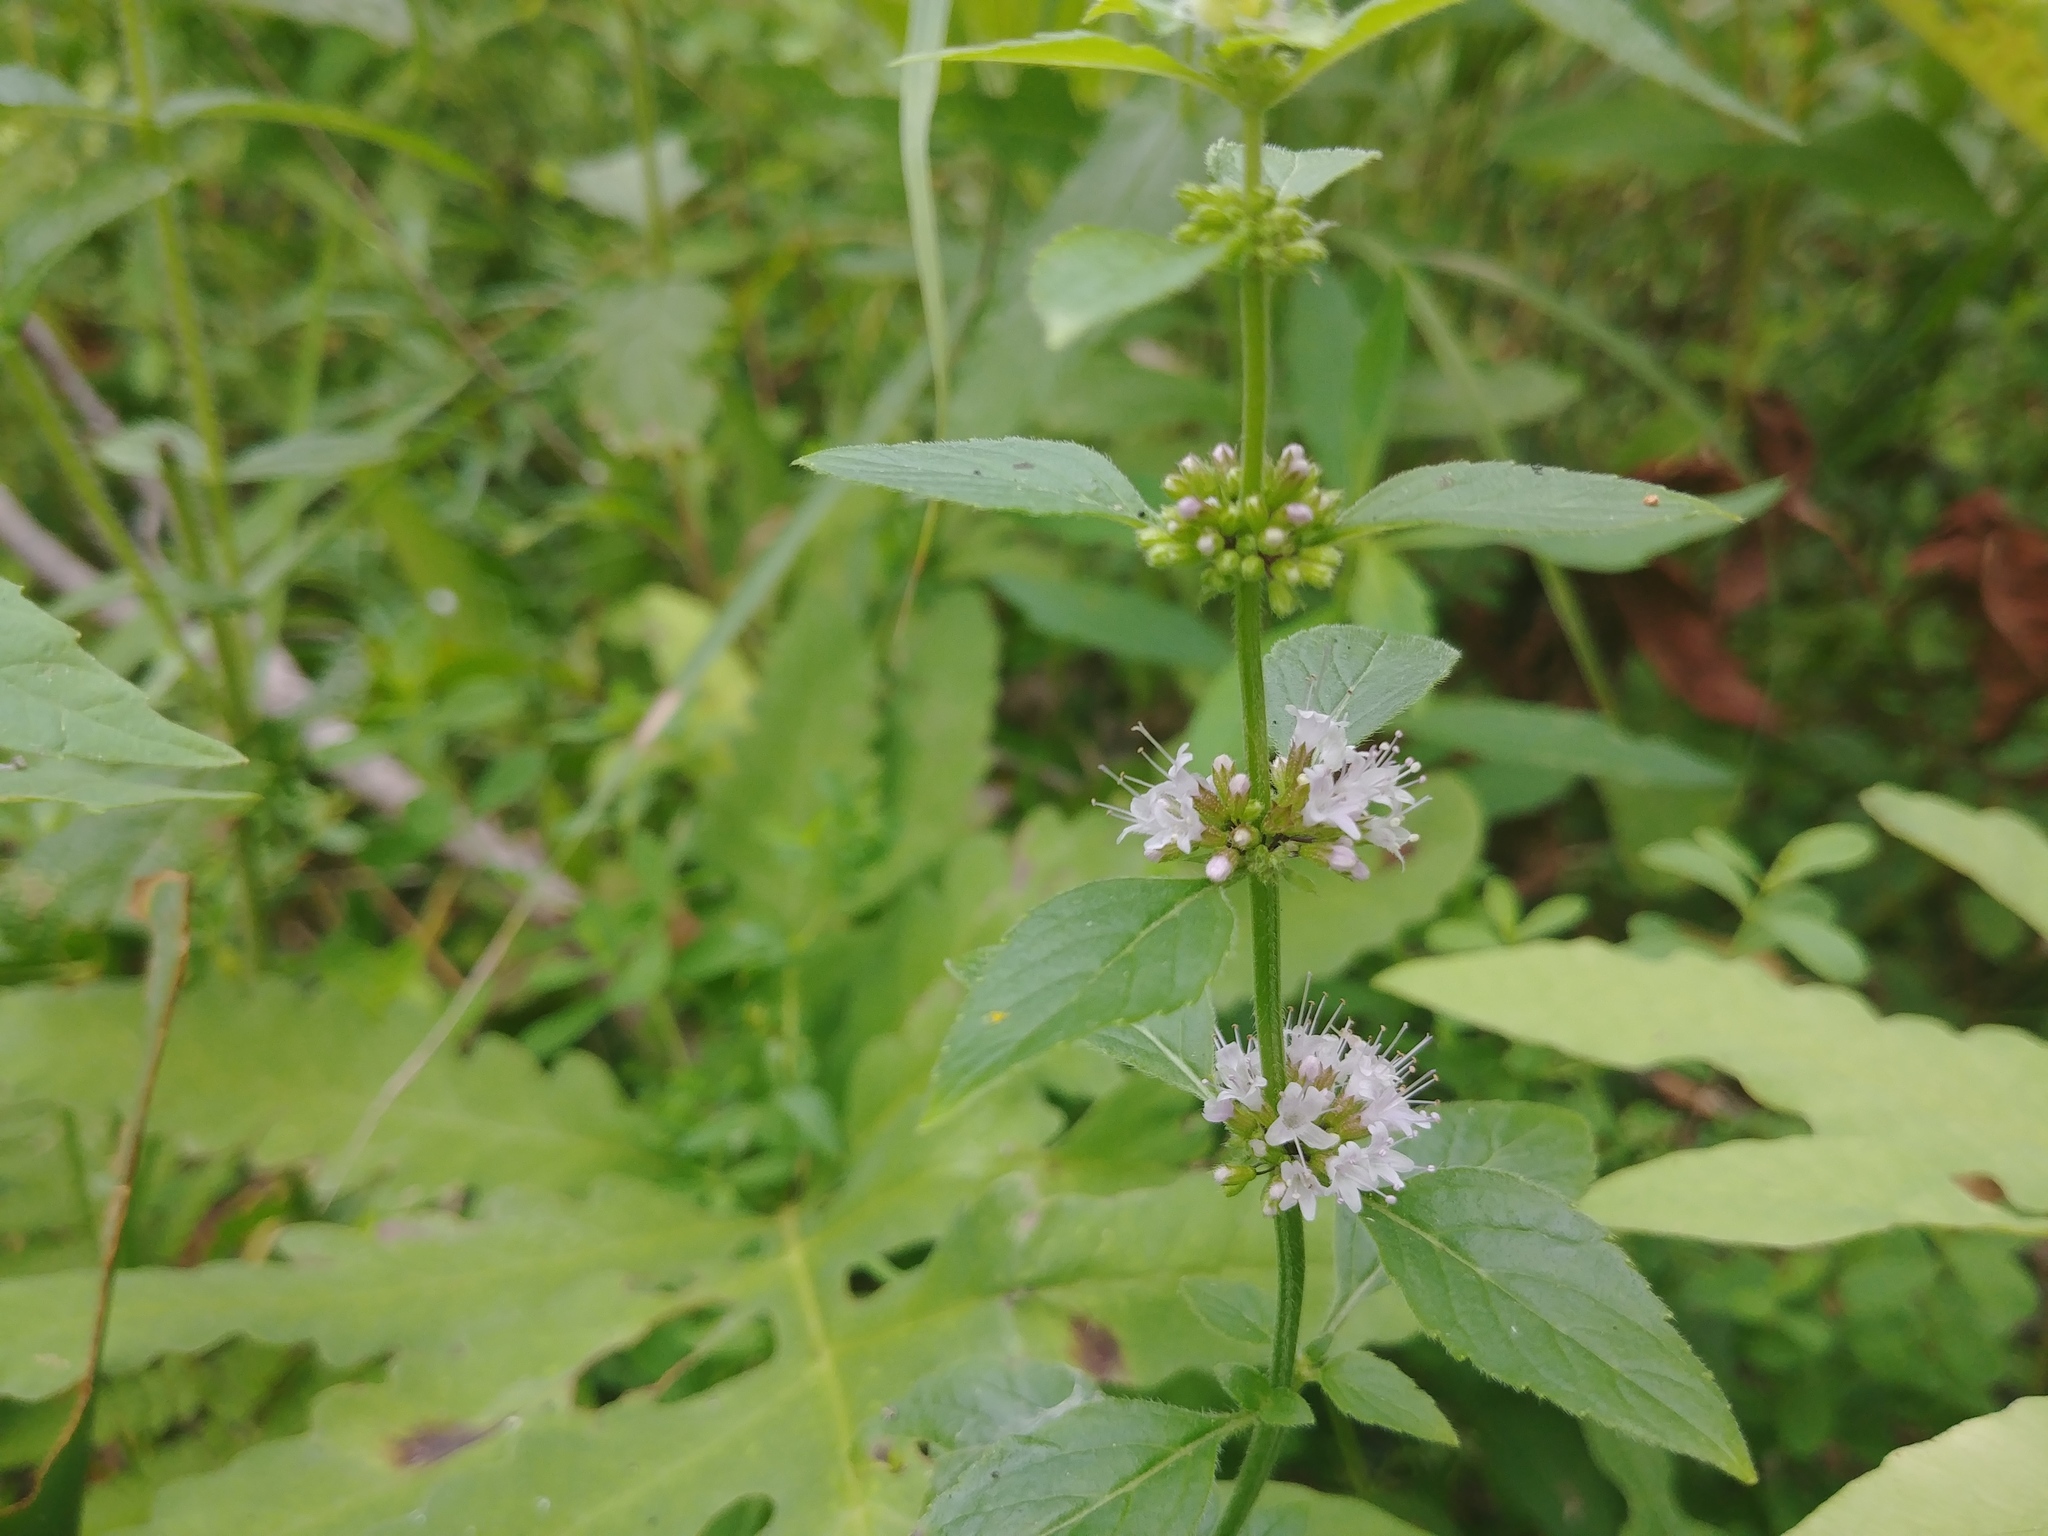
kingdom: Plantae
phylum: Tracheophyta
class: Magnoliopsida
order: Lamiales
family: Lamiaceae
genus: Mentha
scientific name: Mentha canadensis
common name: American corn mint
